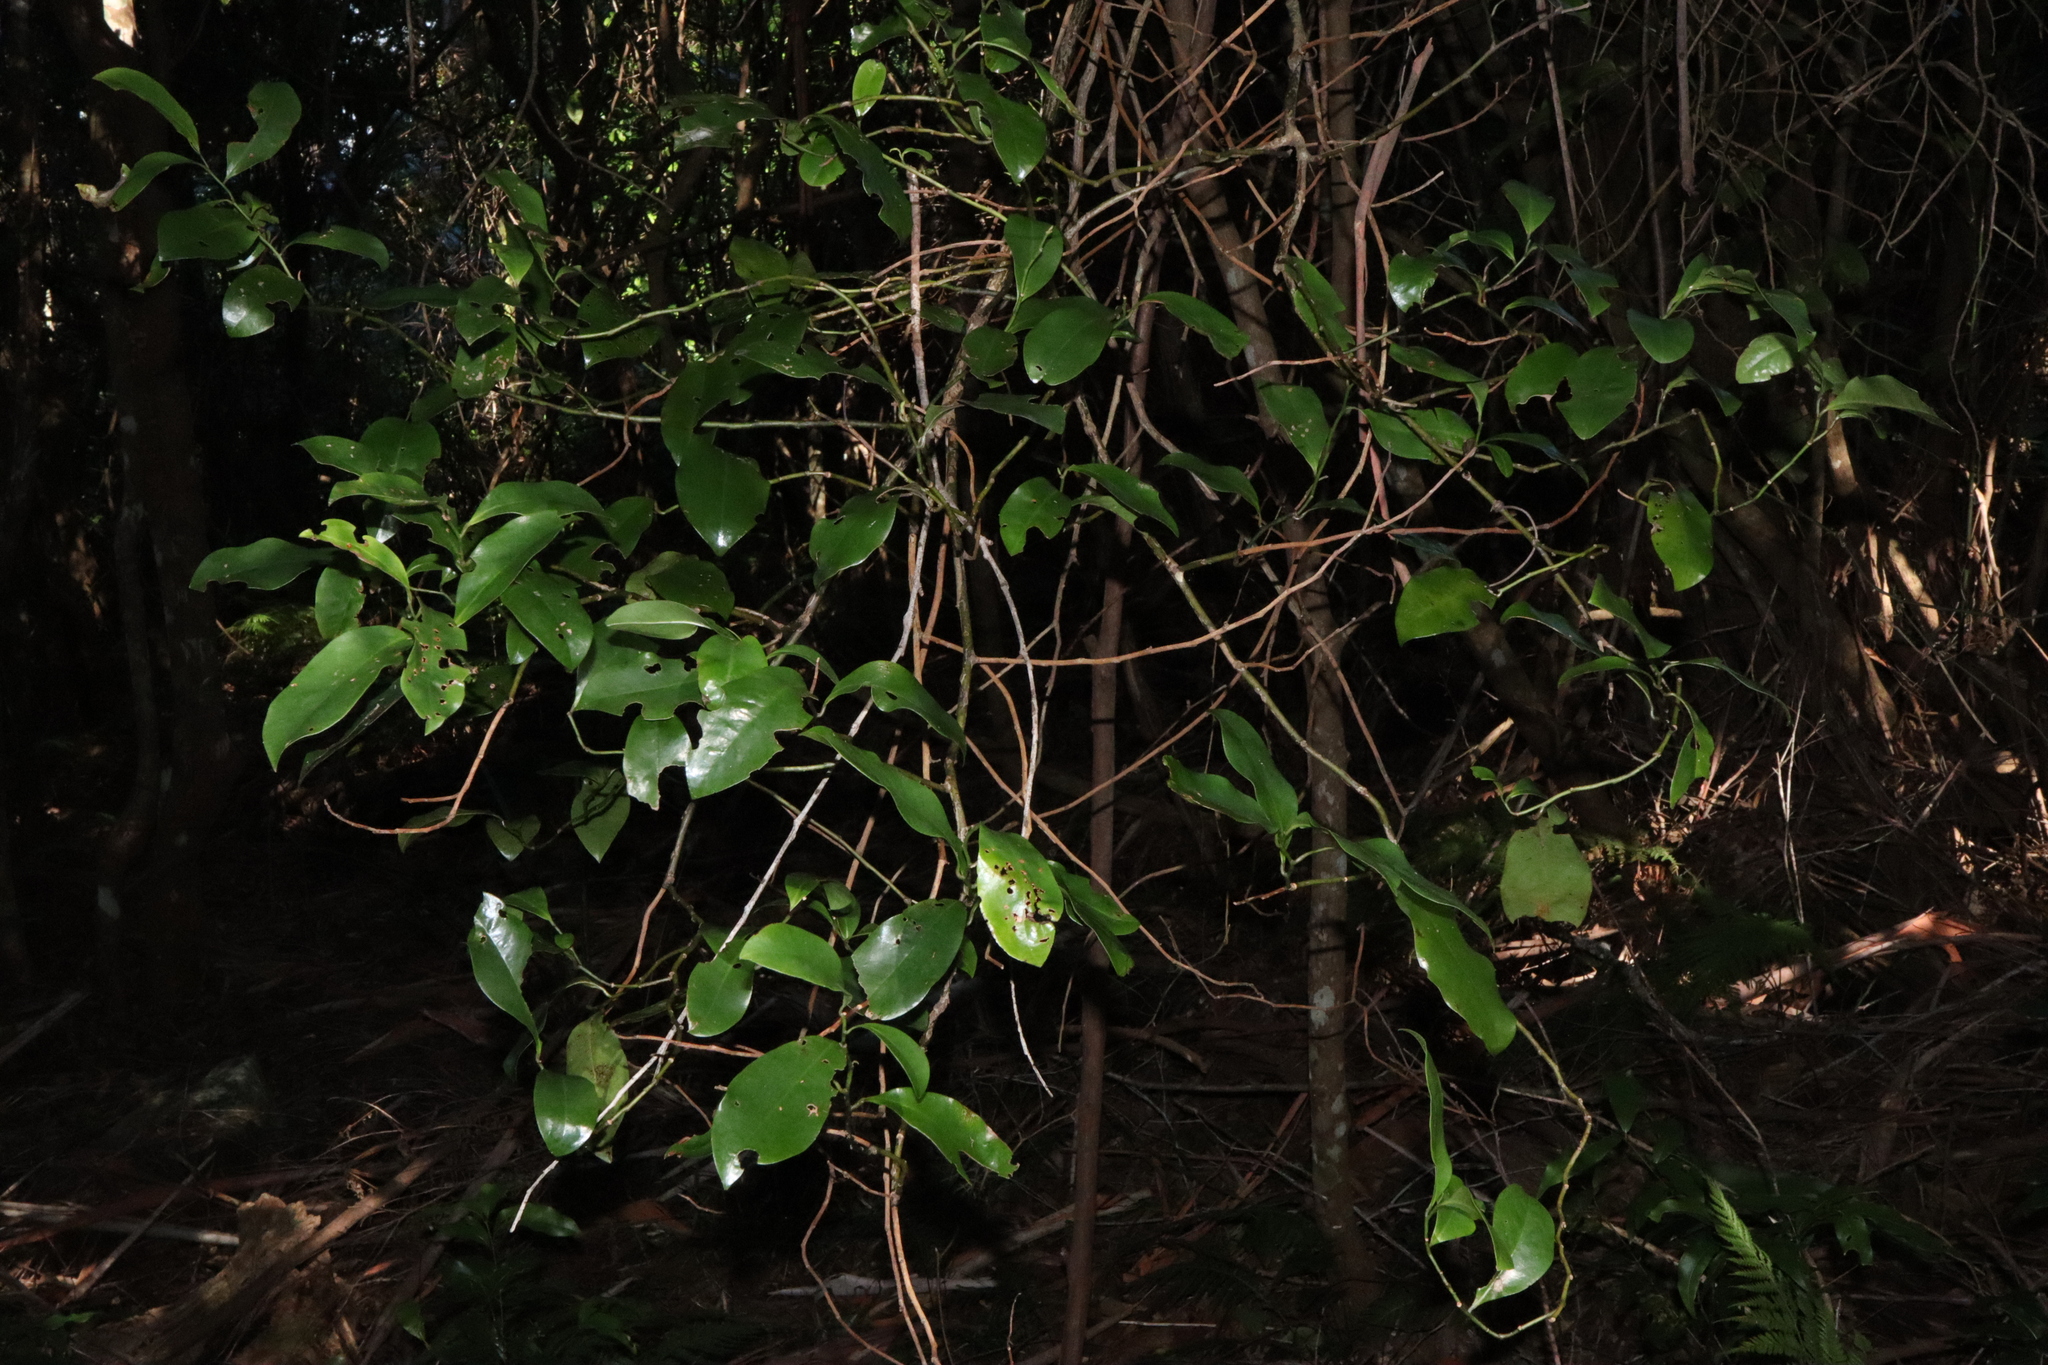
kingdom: Plantae
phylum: Tracheophyta
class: Magnoliopsida
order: Magnoliales
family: Eupomatiaceae
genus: Eupomatia
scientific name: Eupomatia laurina
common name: Bolwarra
